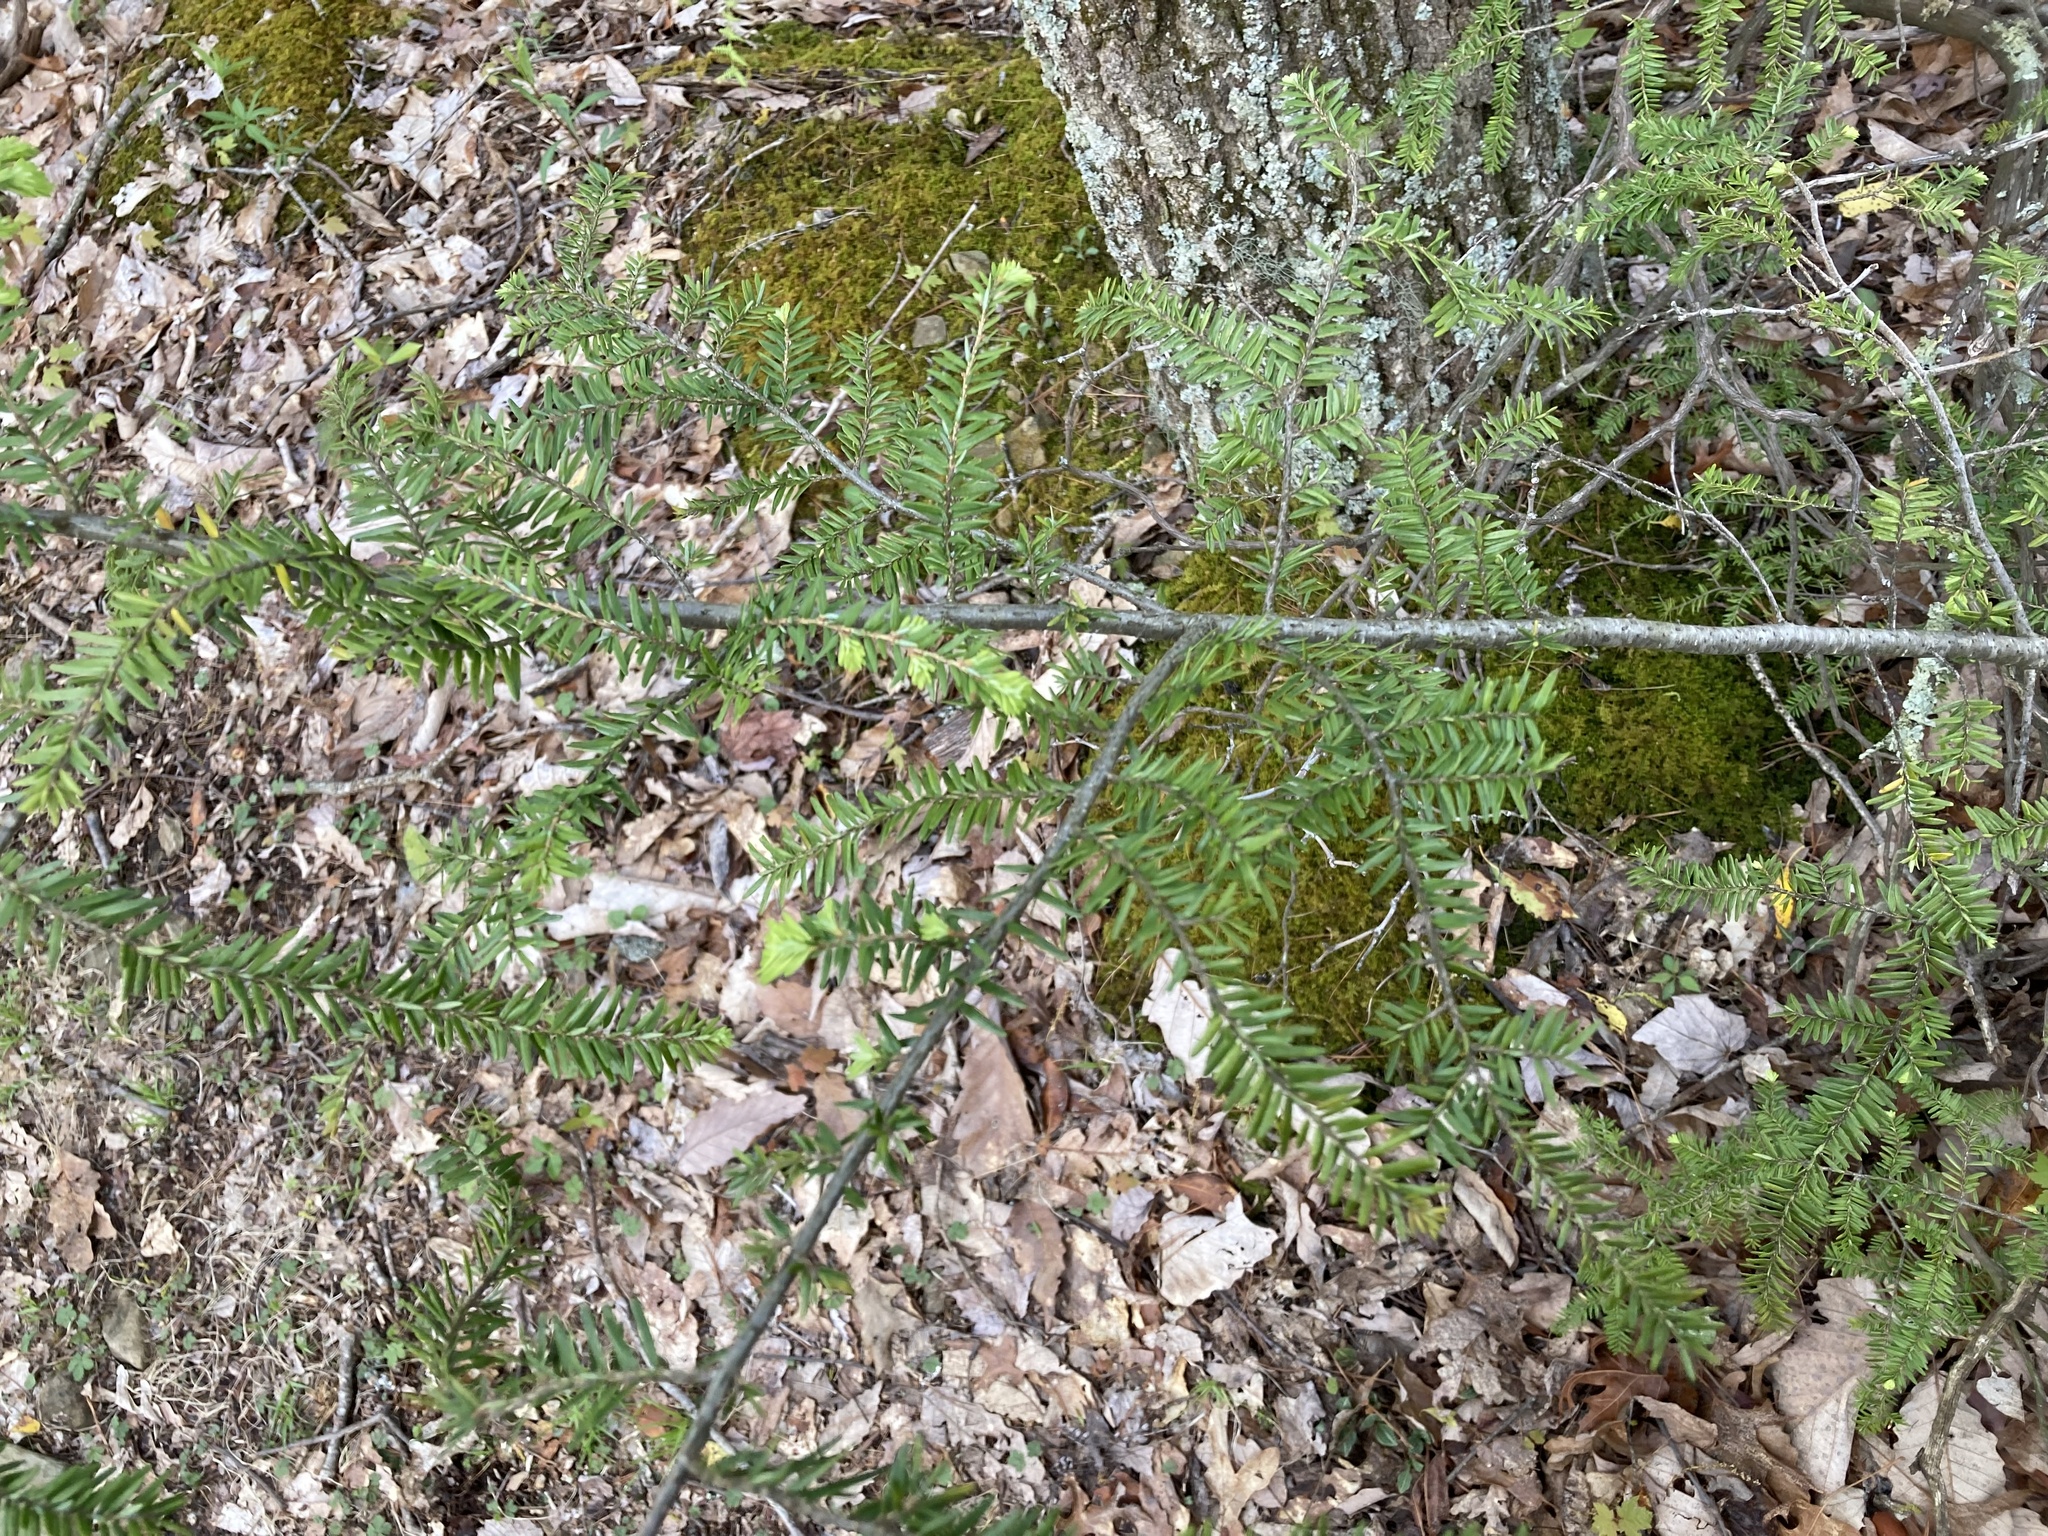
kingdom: Plantae
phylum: Tracheophyta
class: Pinopsida
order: Pinales
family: Pinaceae
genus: Tsuga
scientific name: Tsuga canadensis
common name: Eastern hemlock
